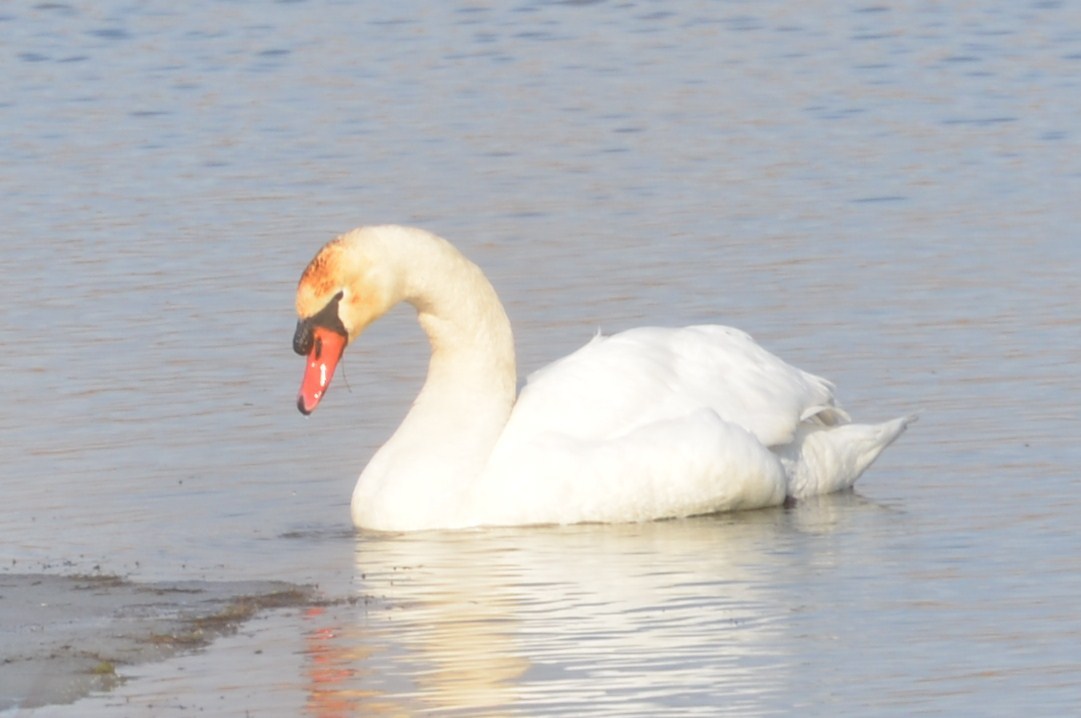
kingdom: Animalia
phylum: Chordata
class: Aves
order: Anseriformes
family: Anatidae
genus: Cygnus
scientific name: Cygnus olor
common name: Mute swan
